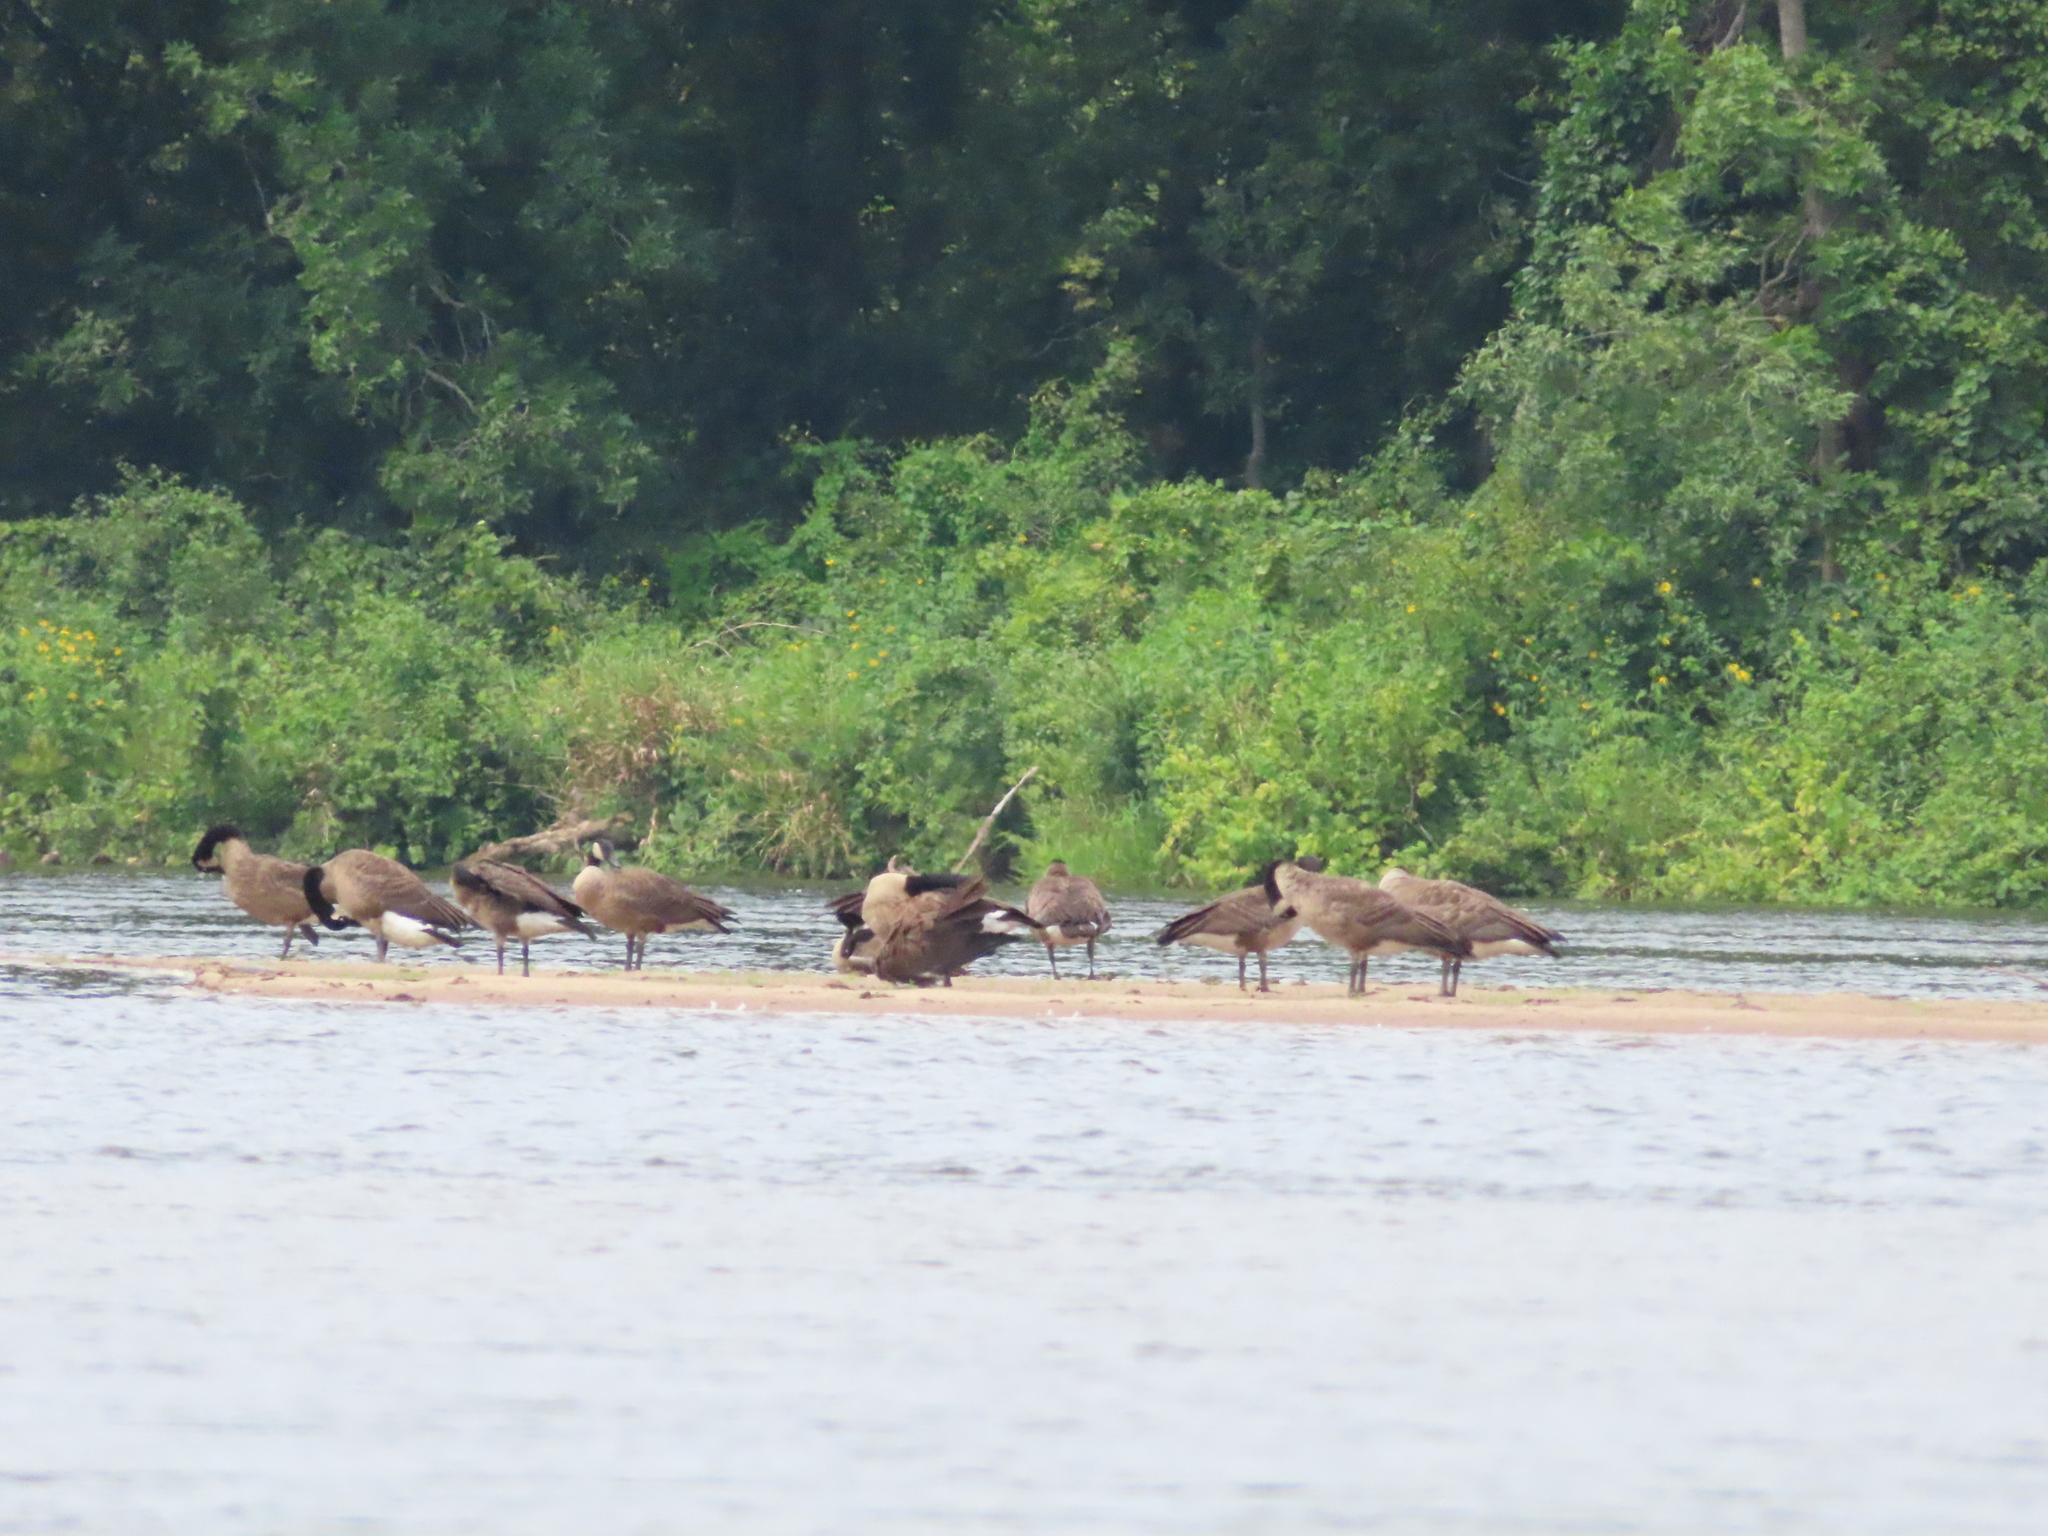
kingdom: Animalia
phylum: Chordata
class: Aves
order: Anseriformes
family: Anatidae
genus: Branta
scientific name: Branta canadensis
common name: Canada goose
